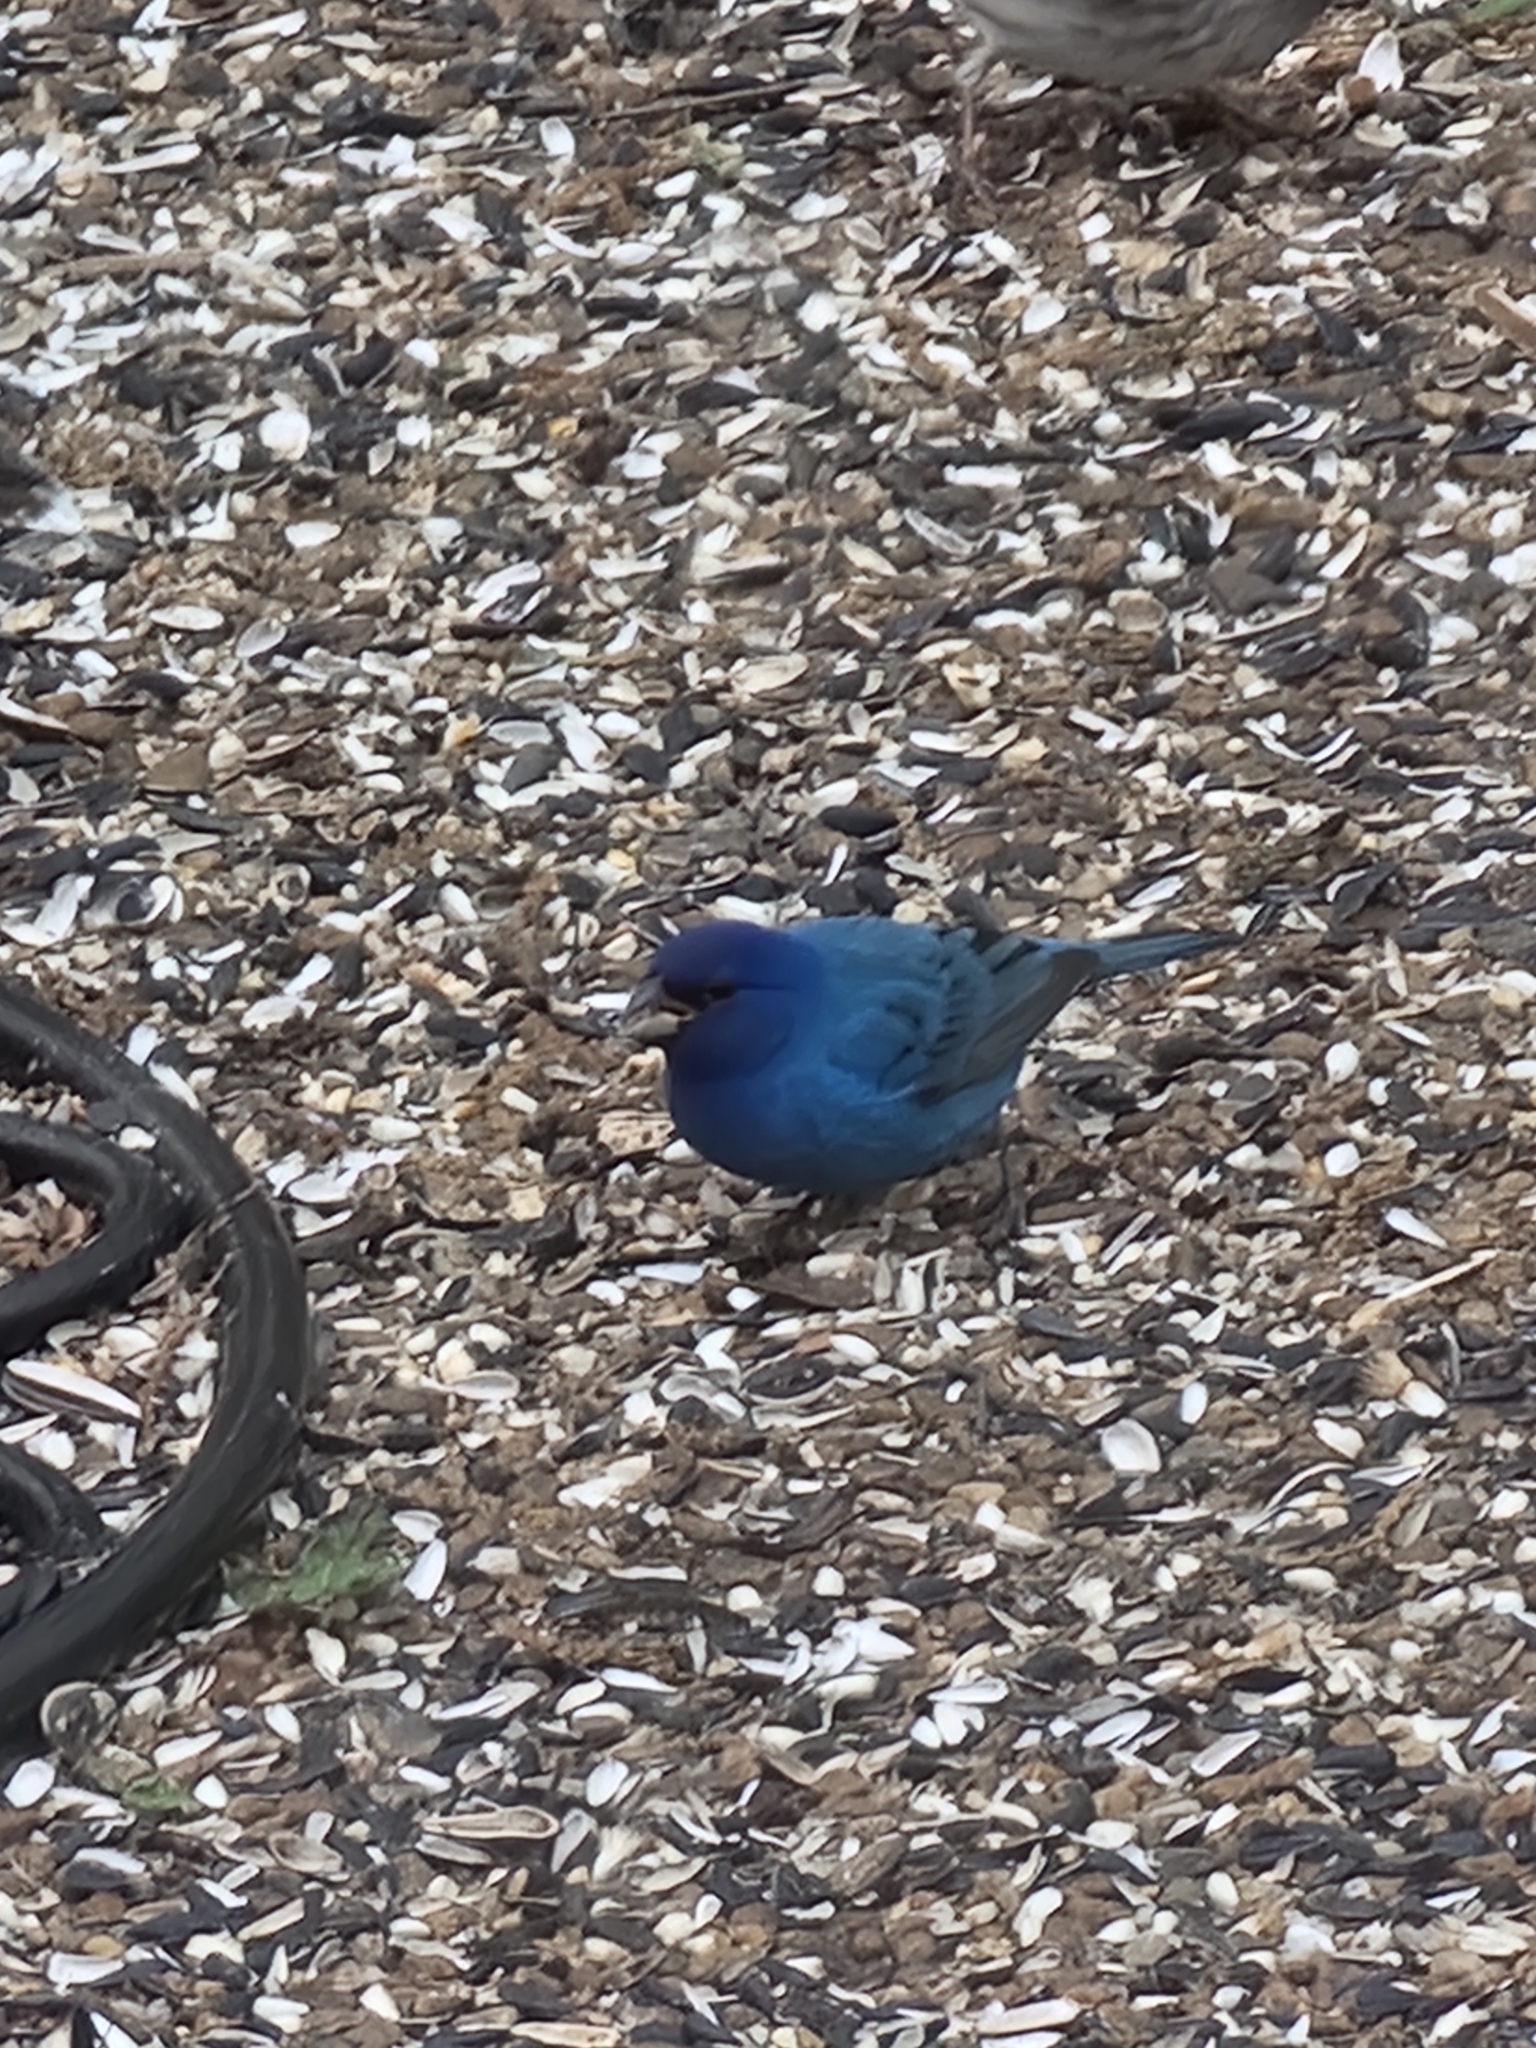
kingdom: Animalia
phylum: Chordata
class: Aves
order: Passeriformes
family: Cardinalidae
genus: Passerina
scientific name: Passerina cyanea
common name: Indigo bunting
